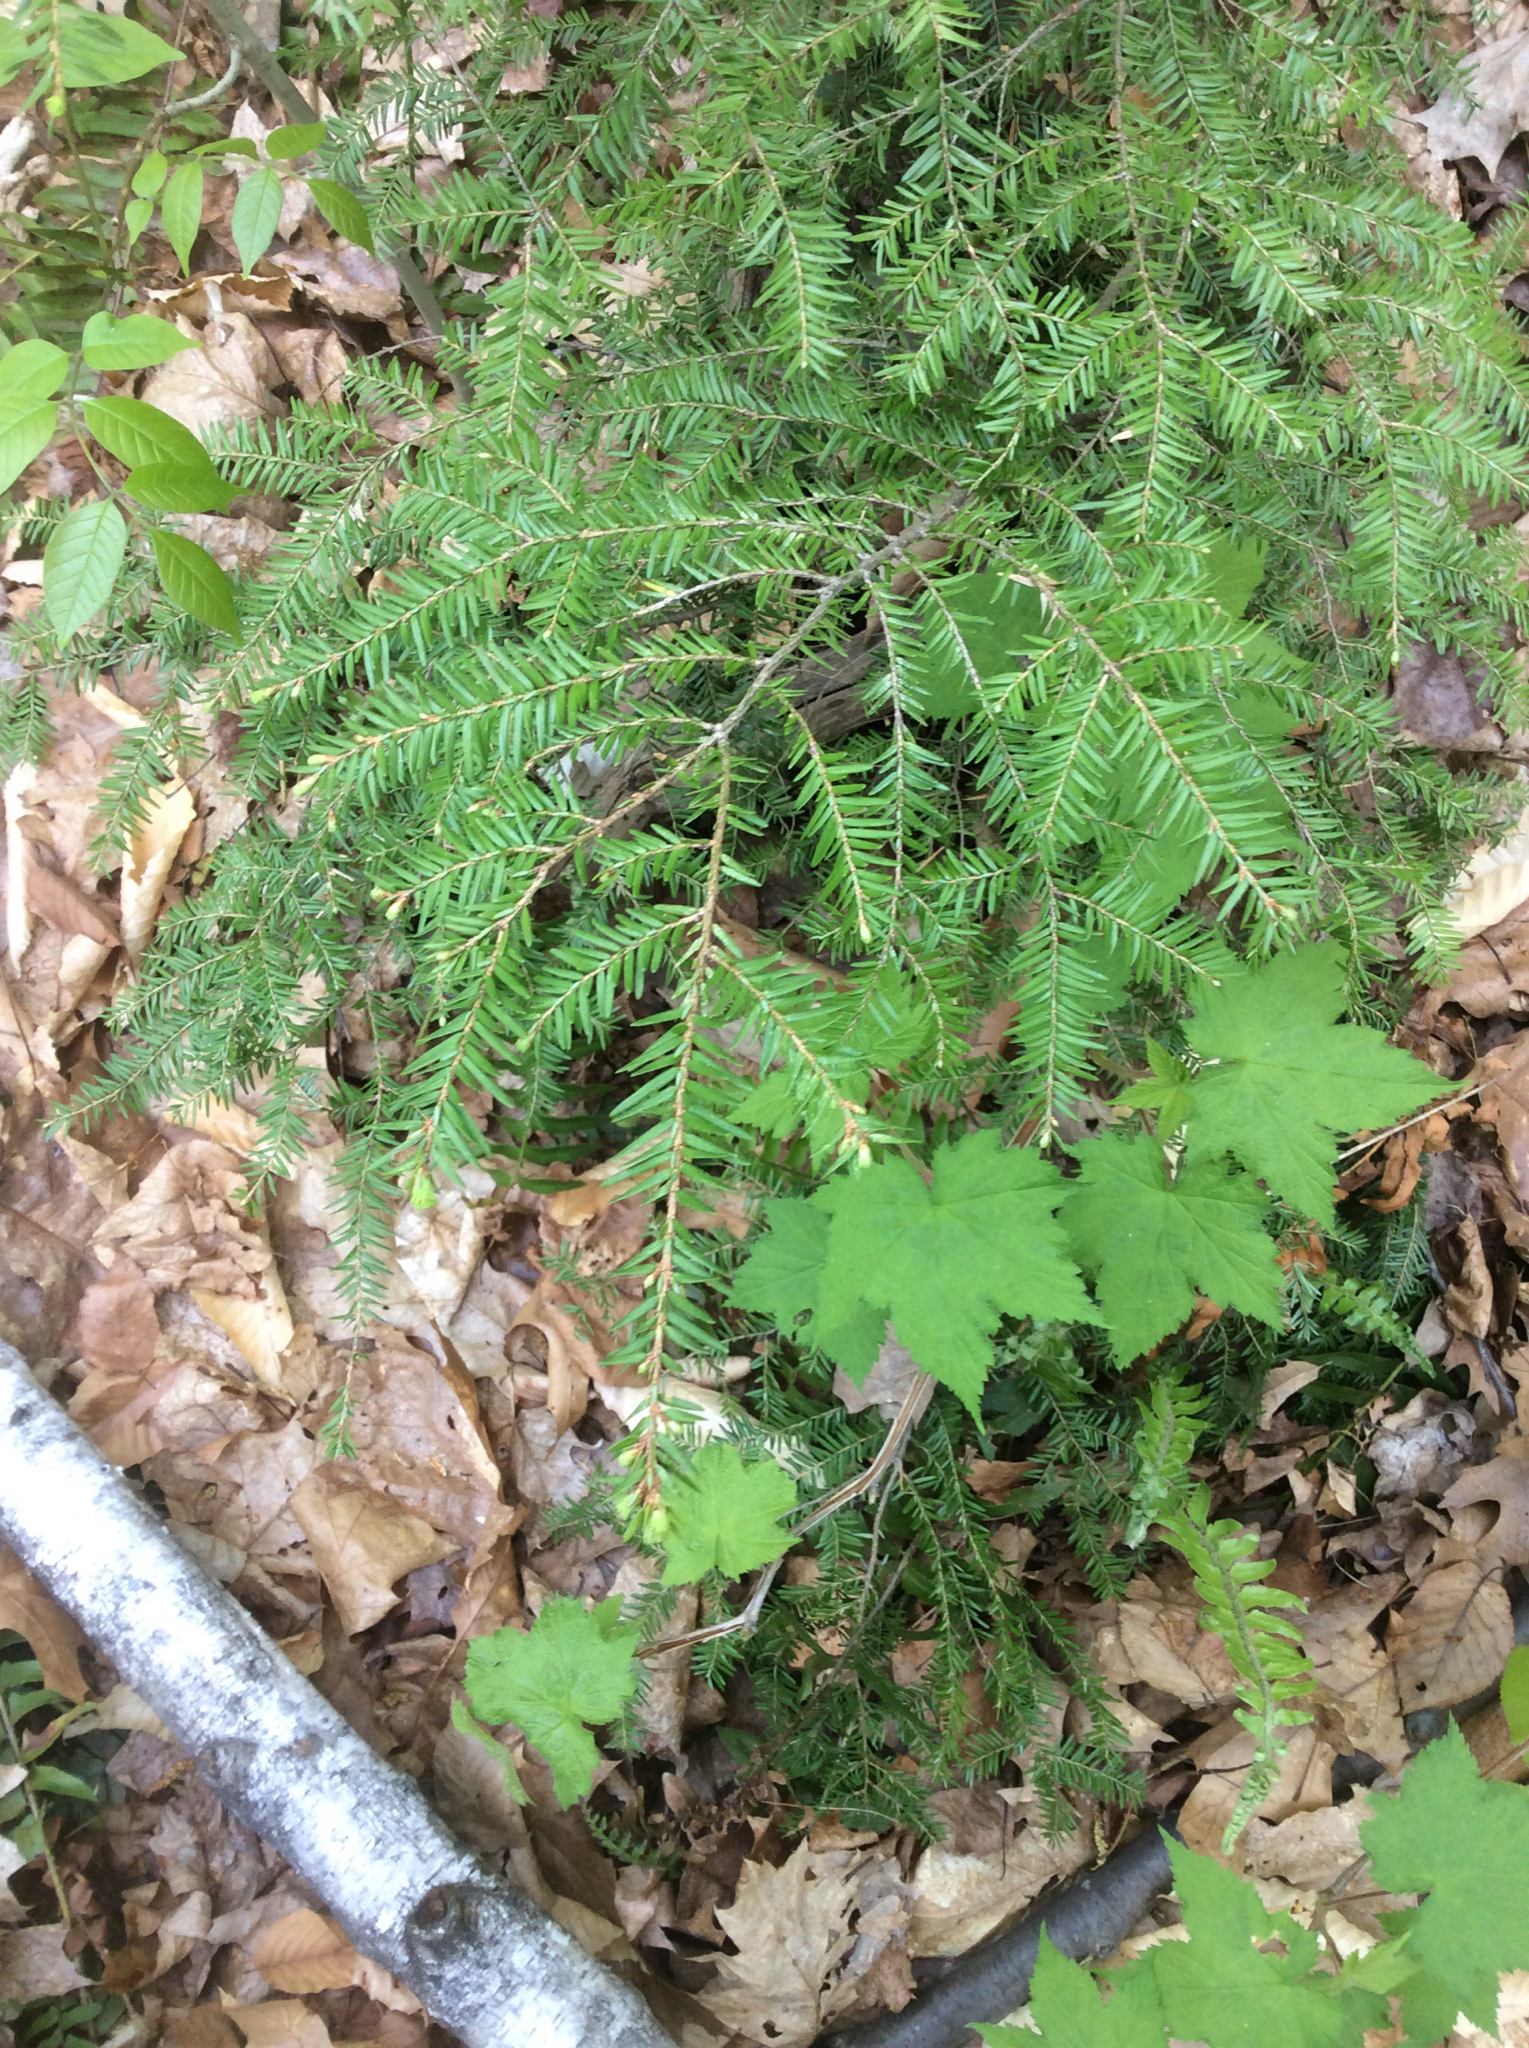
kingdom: Plantae
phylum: Tracheophyta
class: Pinopsida
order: Pinales
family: Pinaceae
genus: Tsuga
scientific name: Tsuga canadensis
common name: Eastern hemlock
